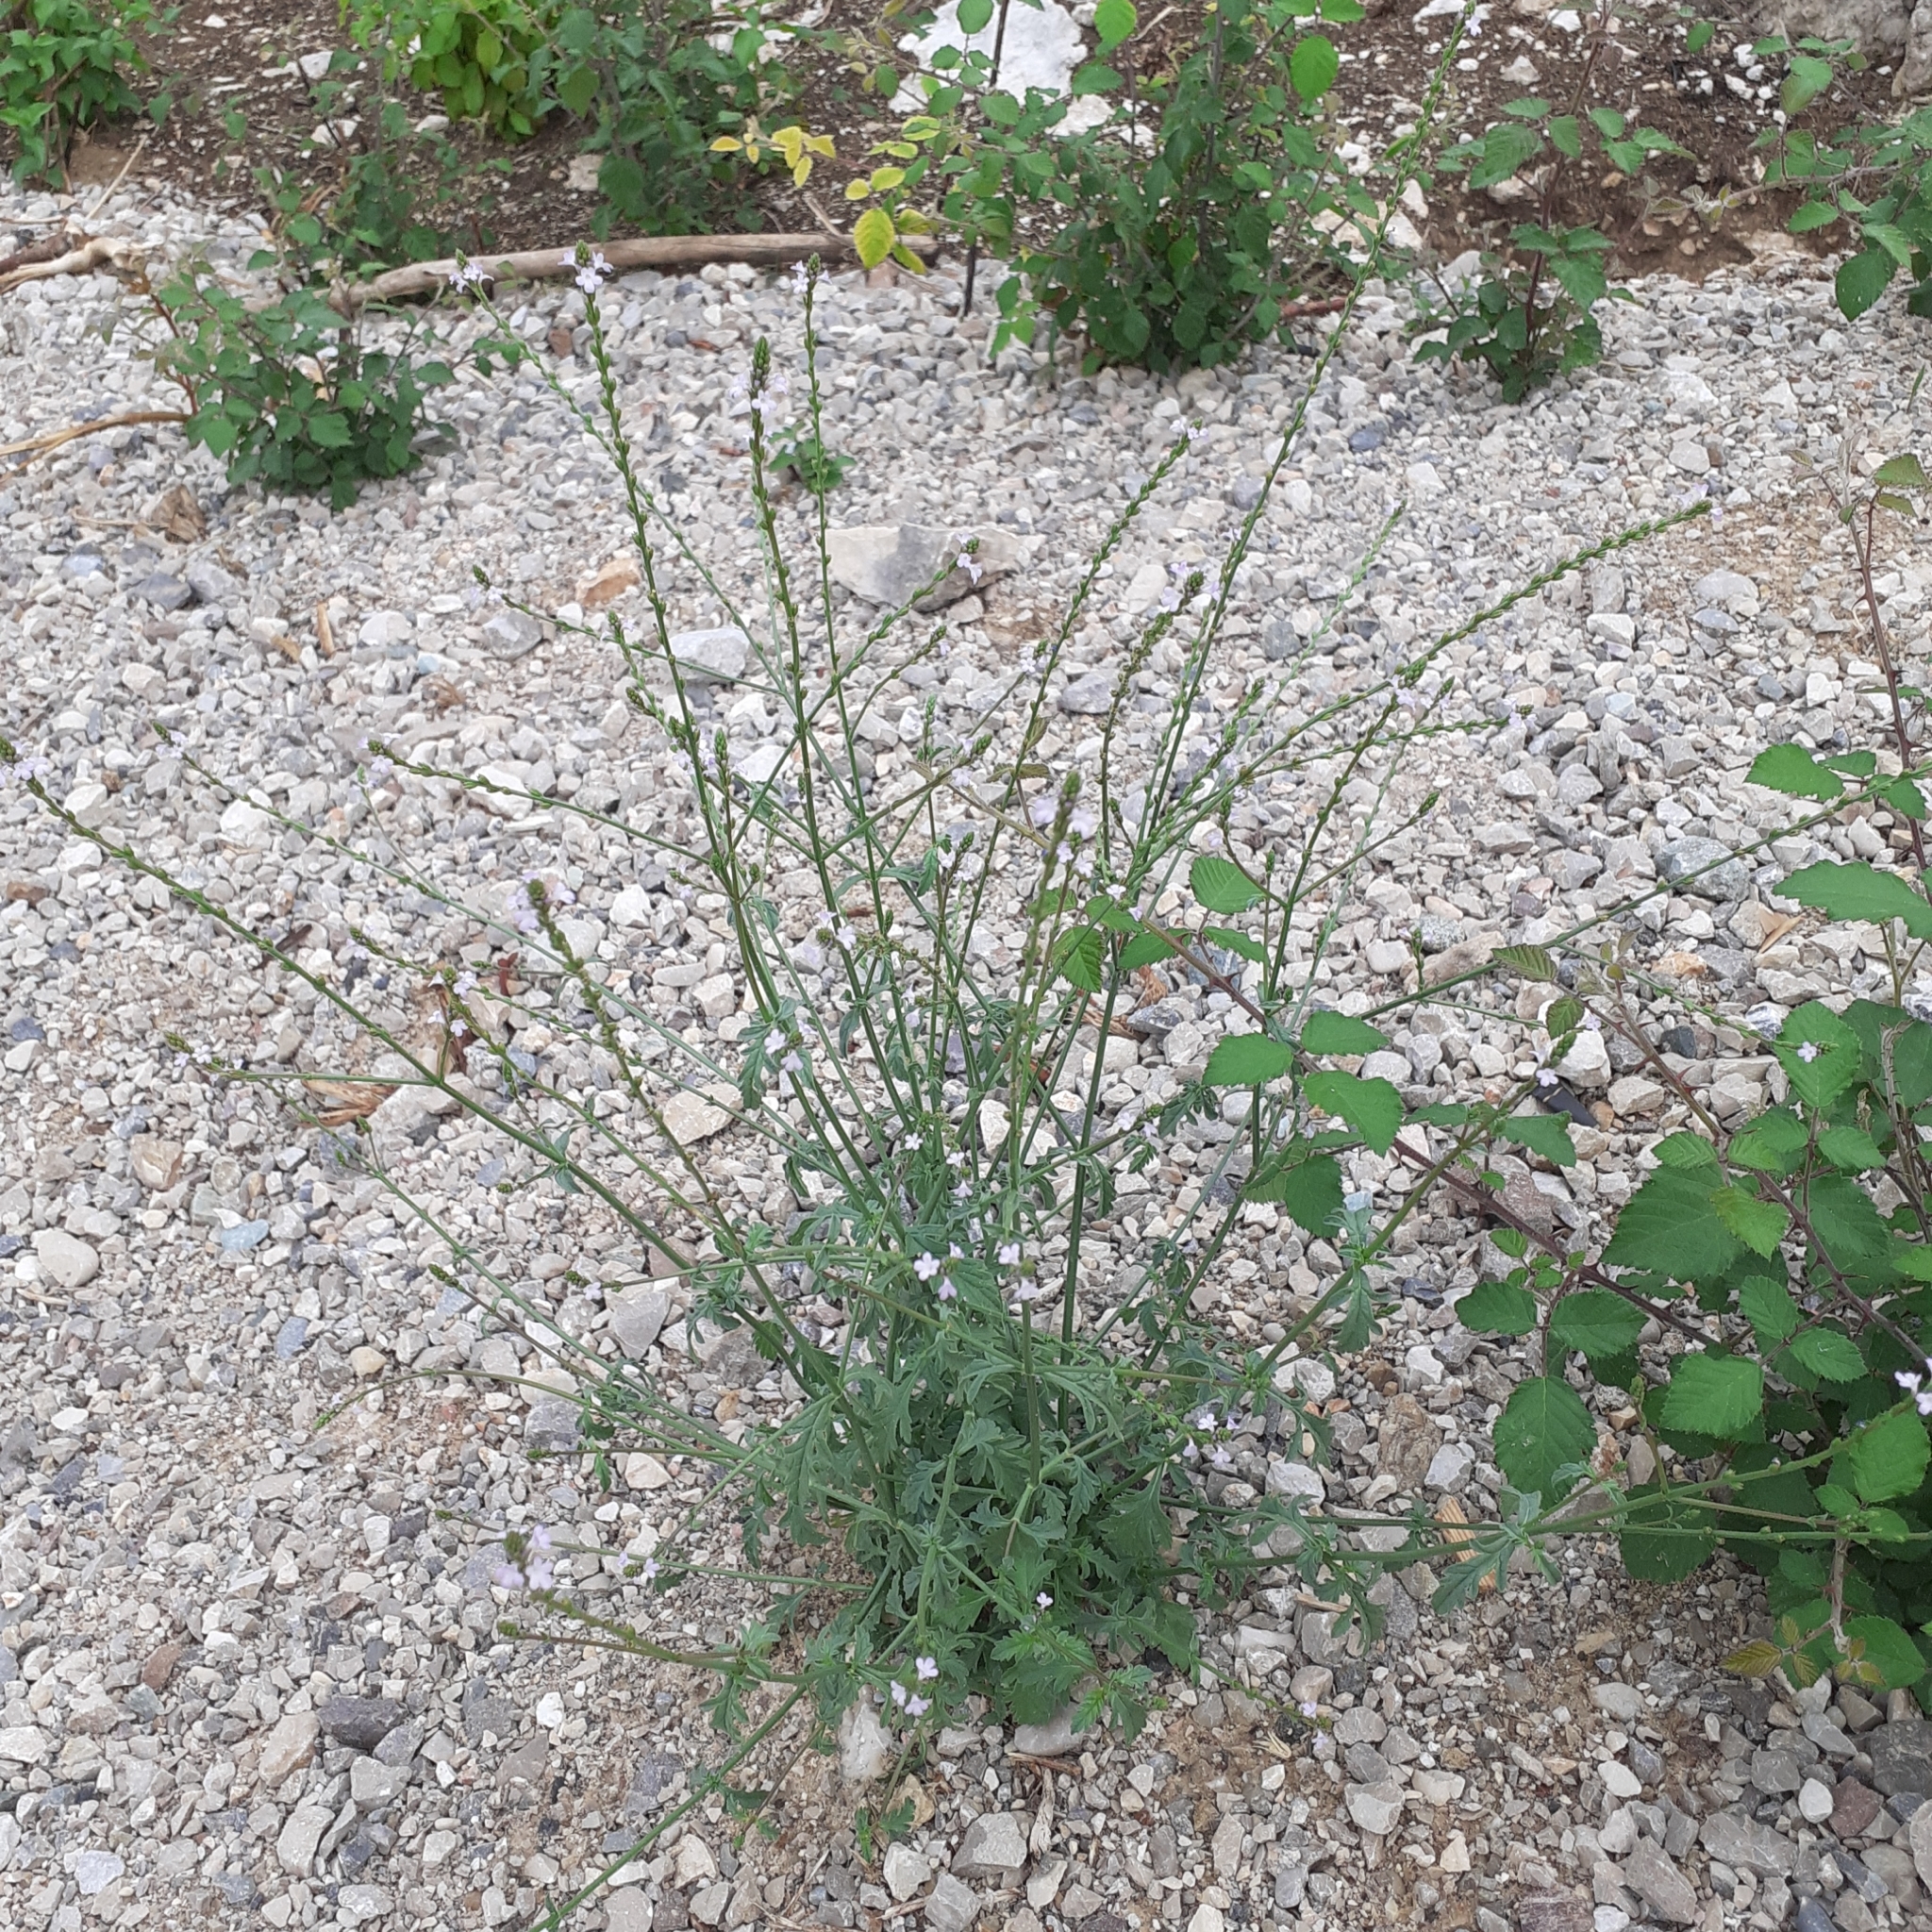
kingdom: Plantae
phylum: Tracheophyta
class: Magnoliopsida
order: Lamiales
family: Verbenaceae
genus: Verbena
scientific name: Verbena officinalis
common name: Vervain
